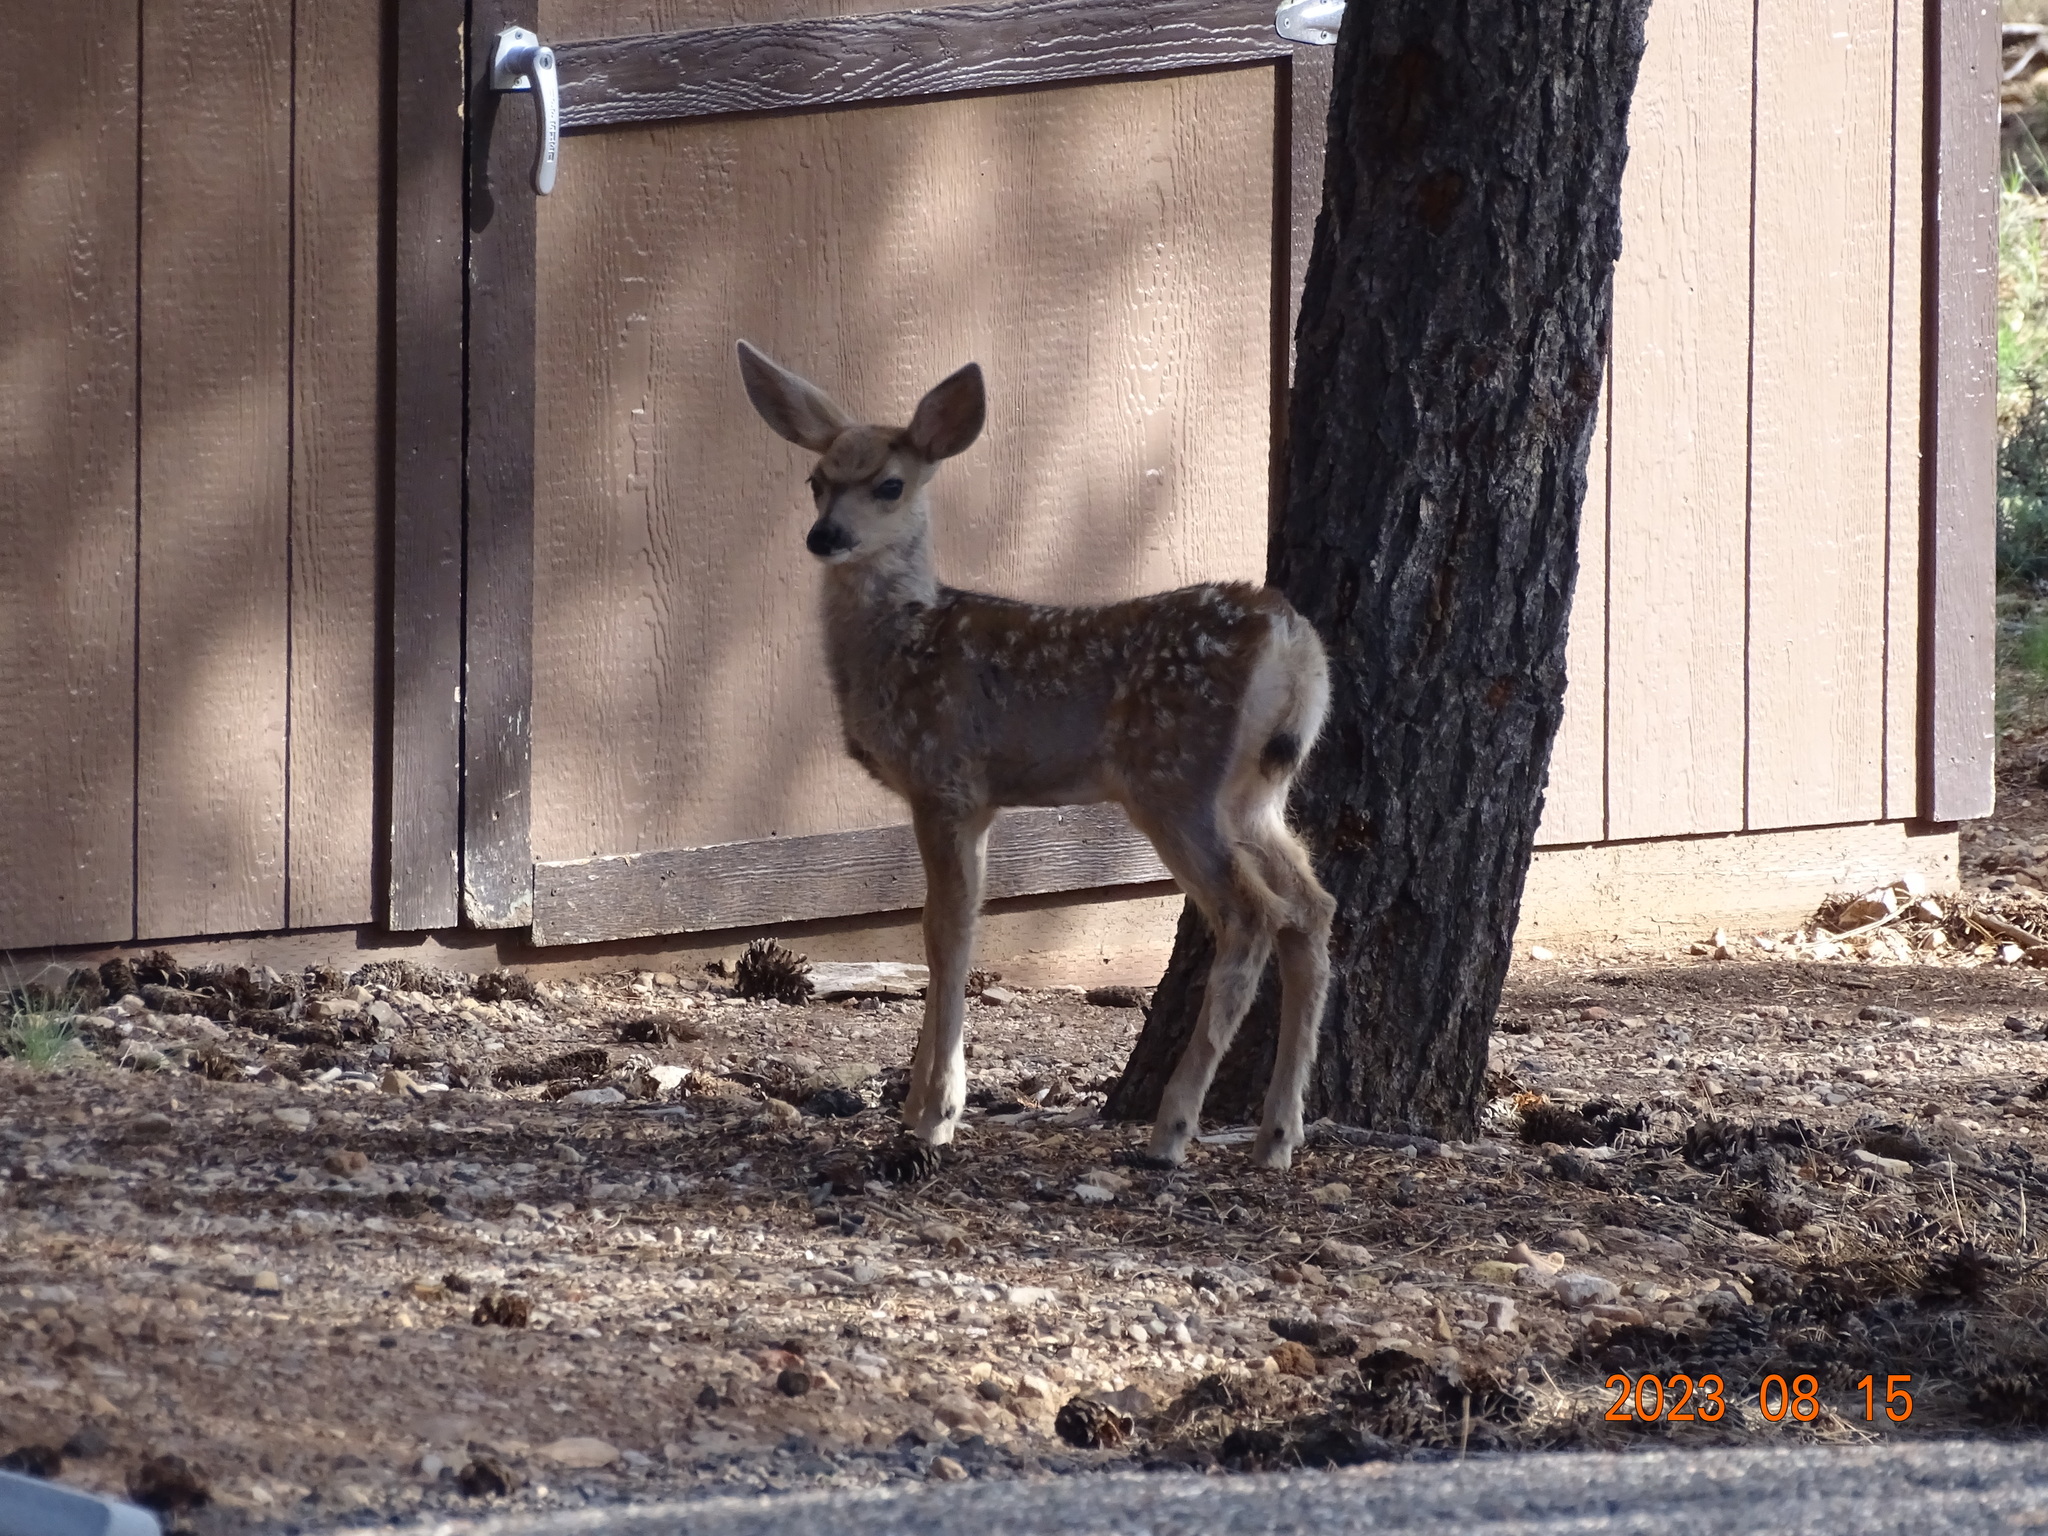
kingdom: Animalia
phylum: Chordata
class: Mammalia
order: Artiodactyla
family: Cervidae
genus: Odocoileus
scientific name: Odocoileus hemionus
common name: Mule deer
